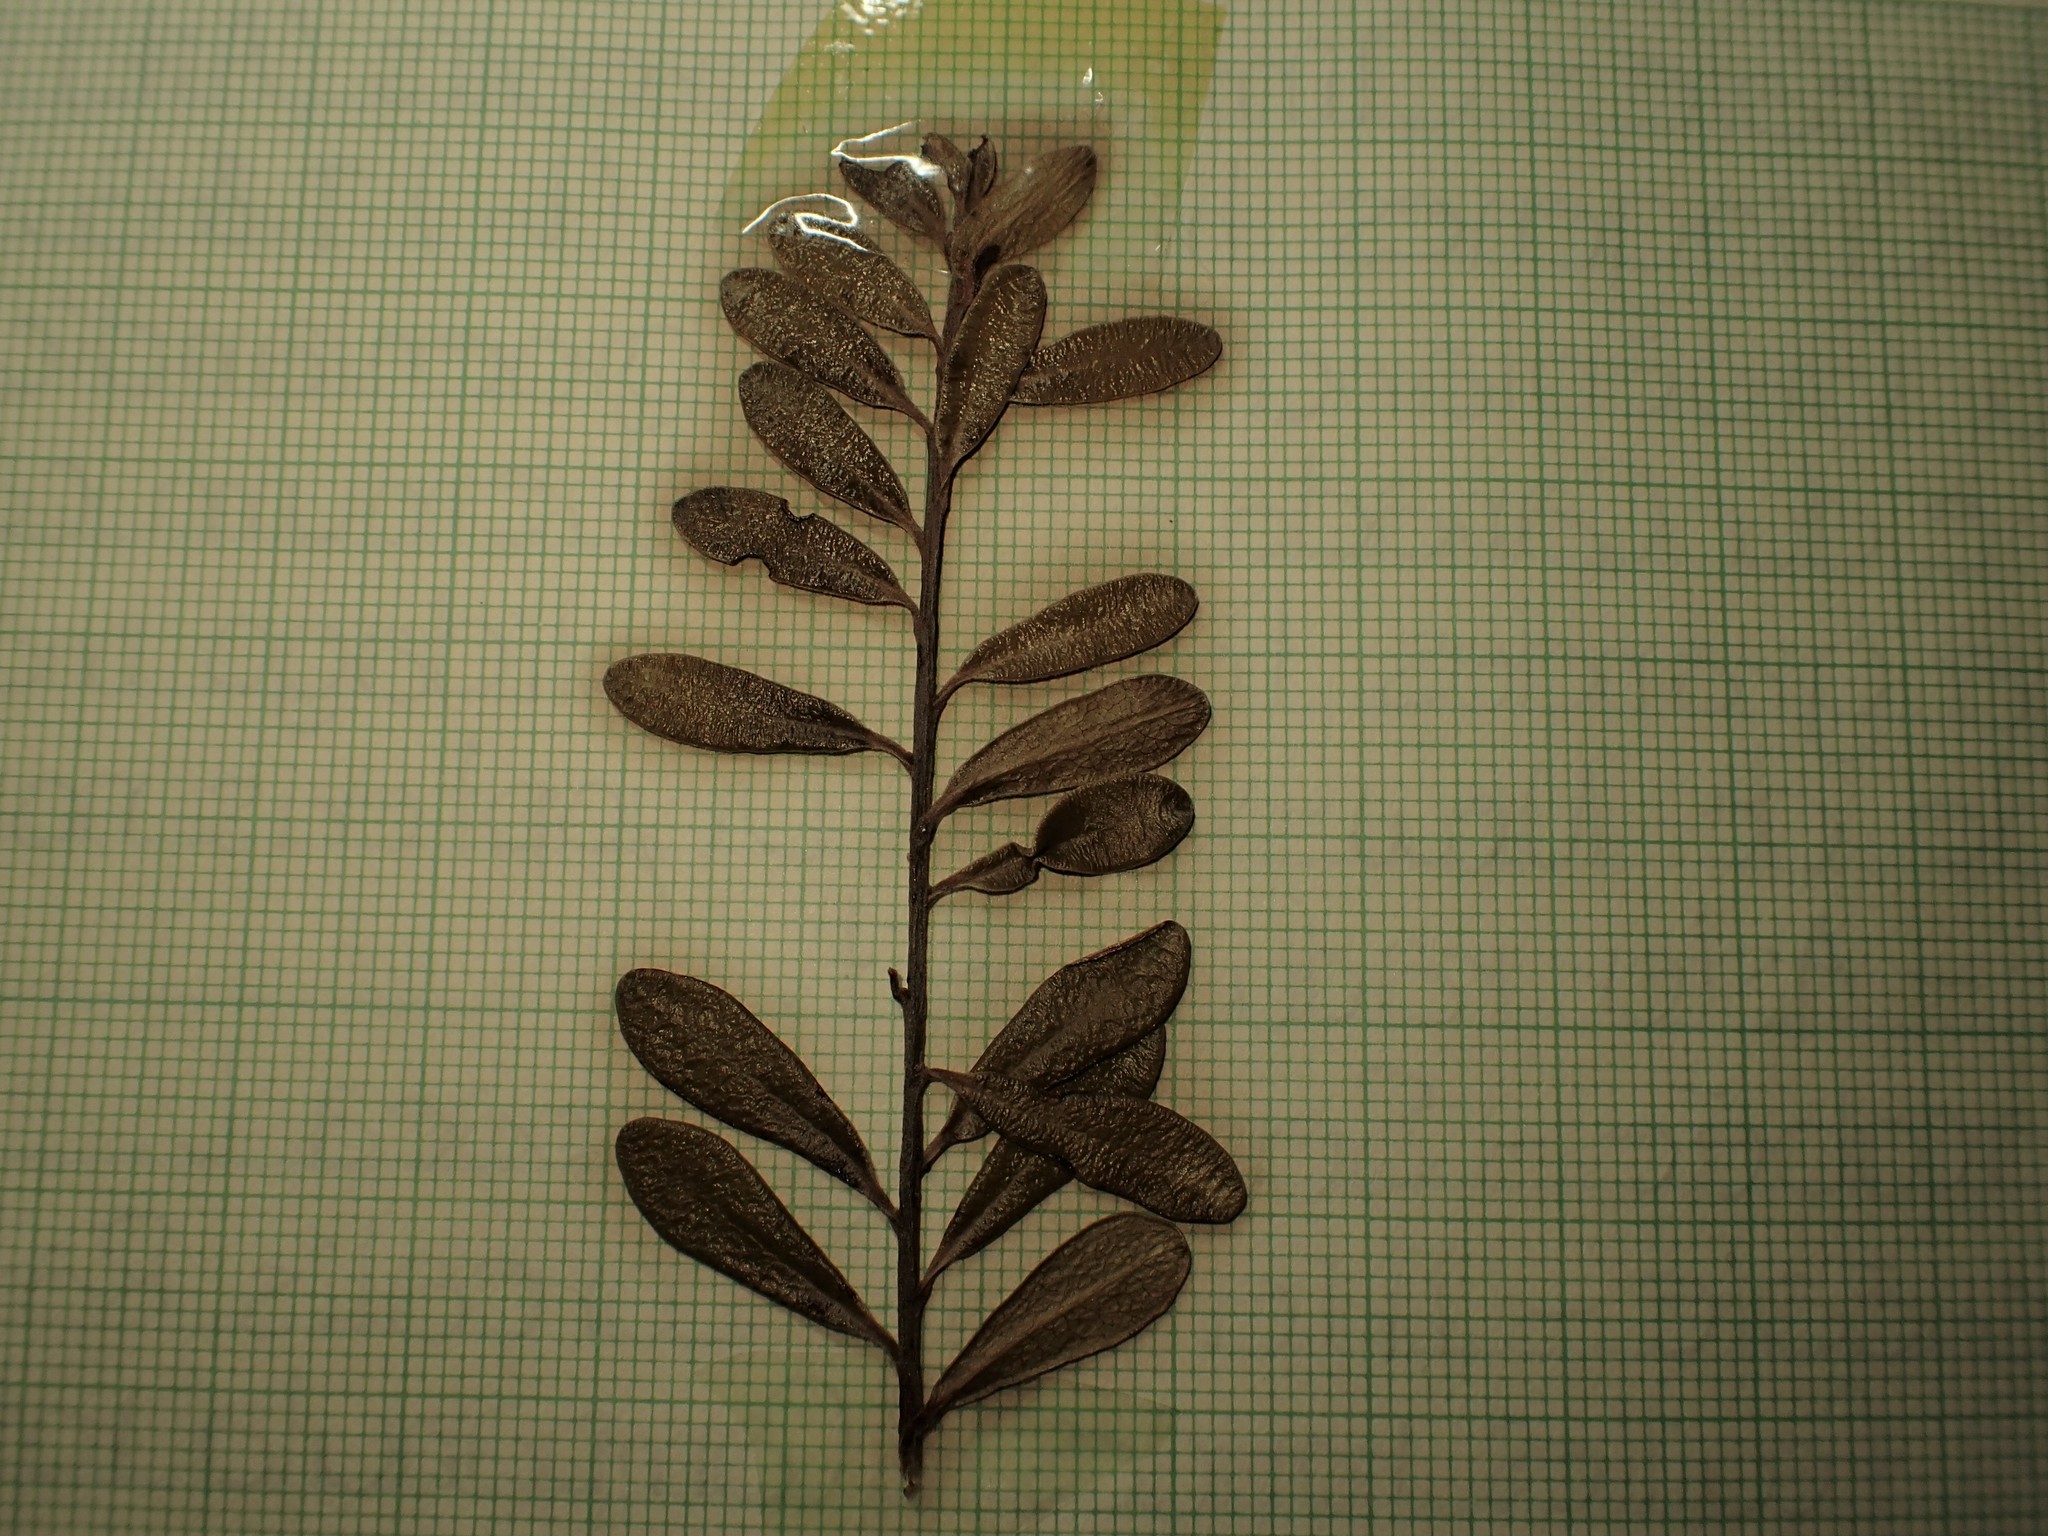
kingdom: Plantae
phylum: Tracheophyta
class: Magnoliopsida
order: Ericales
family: Ericaceae
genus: Arctostaphylos
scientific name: Arctostaphylos uva-ursi
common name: Bearberry
